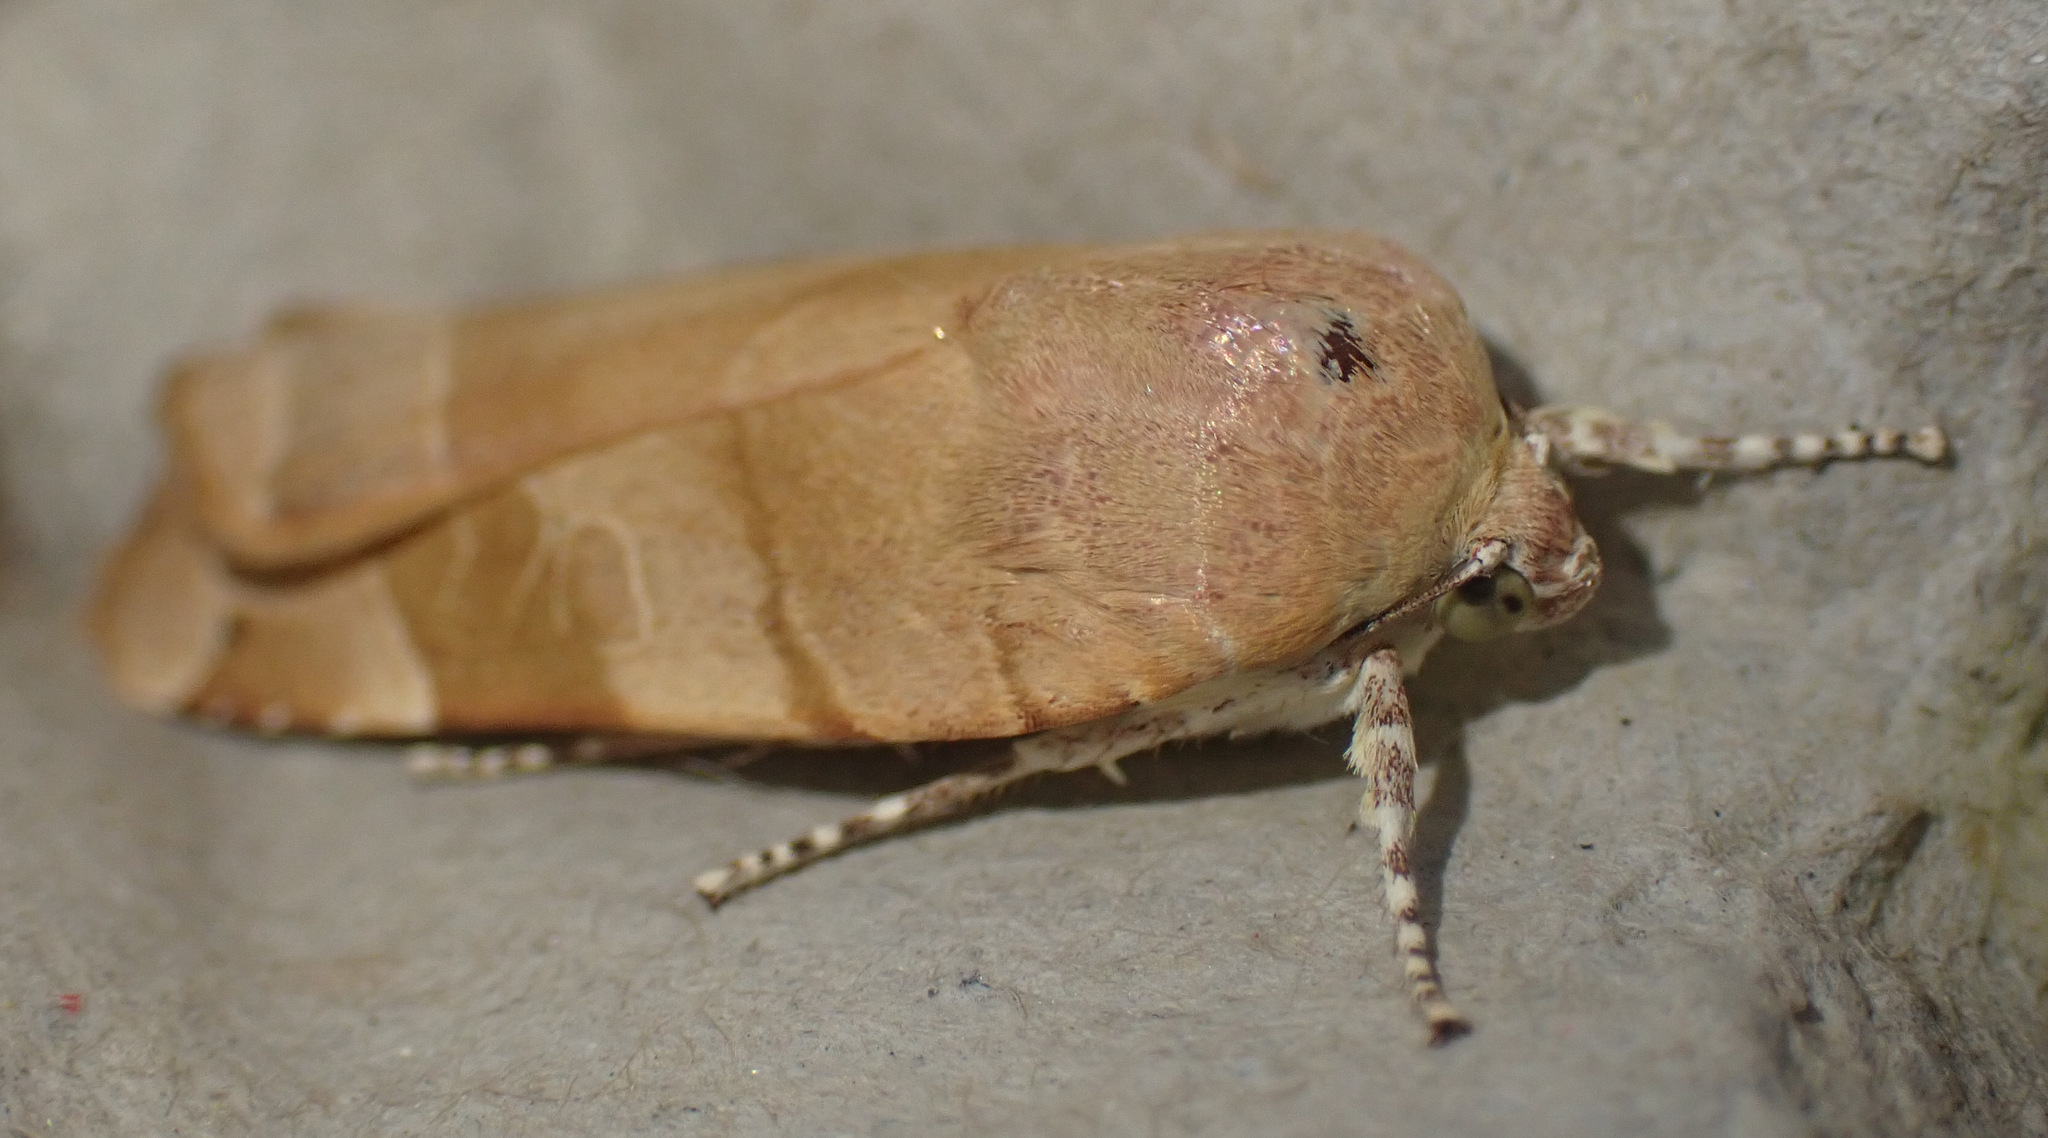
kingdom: Animalia
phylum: Arthropoda
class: Insecta
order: Lepidoptera
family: Noctuidae
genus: Noctua
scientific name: Noctua fimbriata
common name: Broad-bordered yellow underwing
